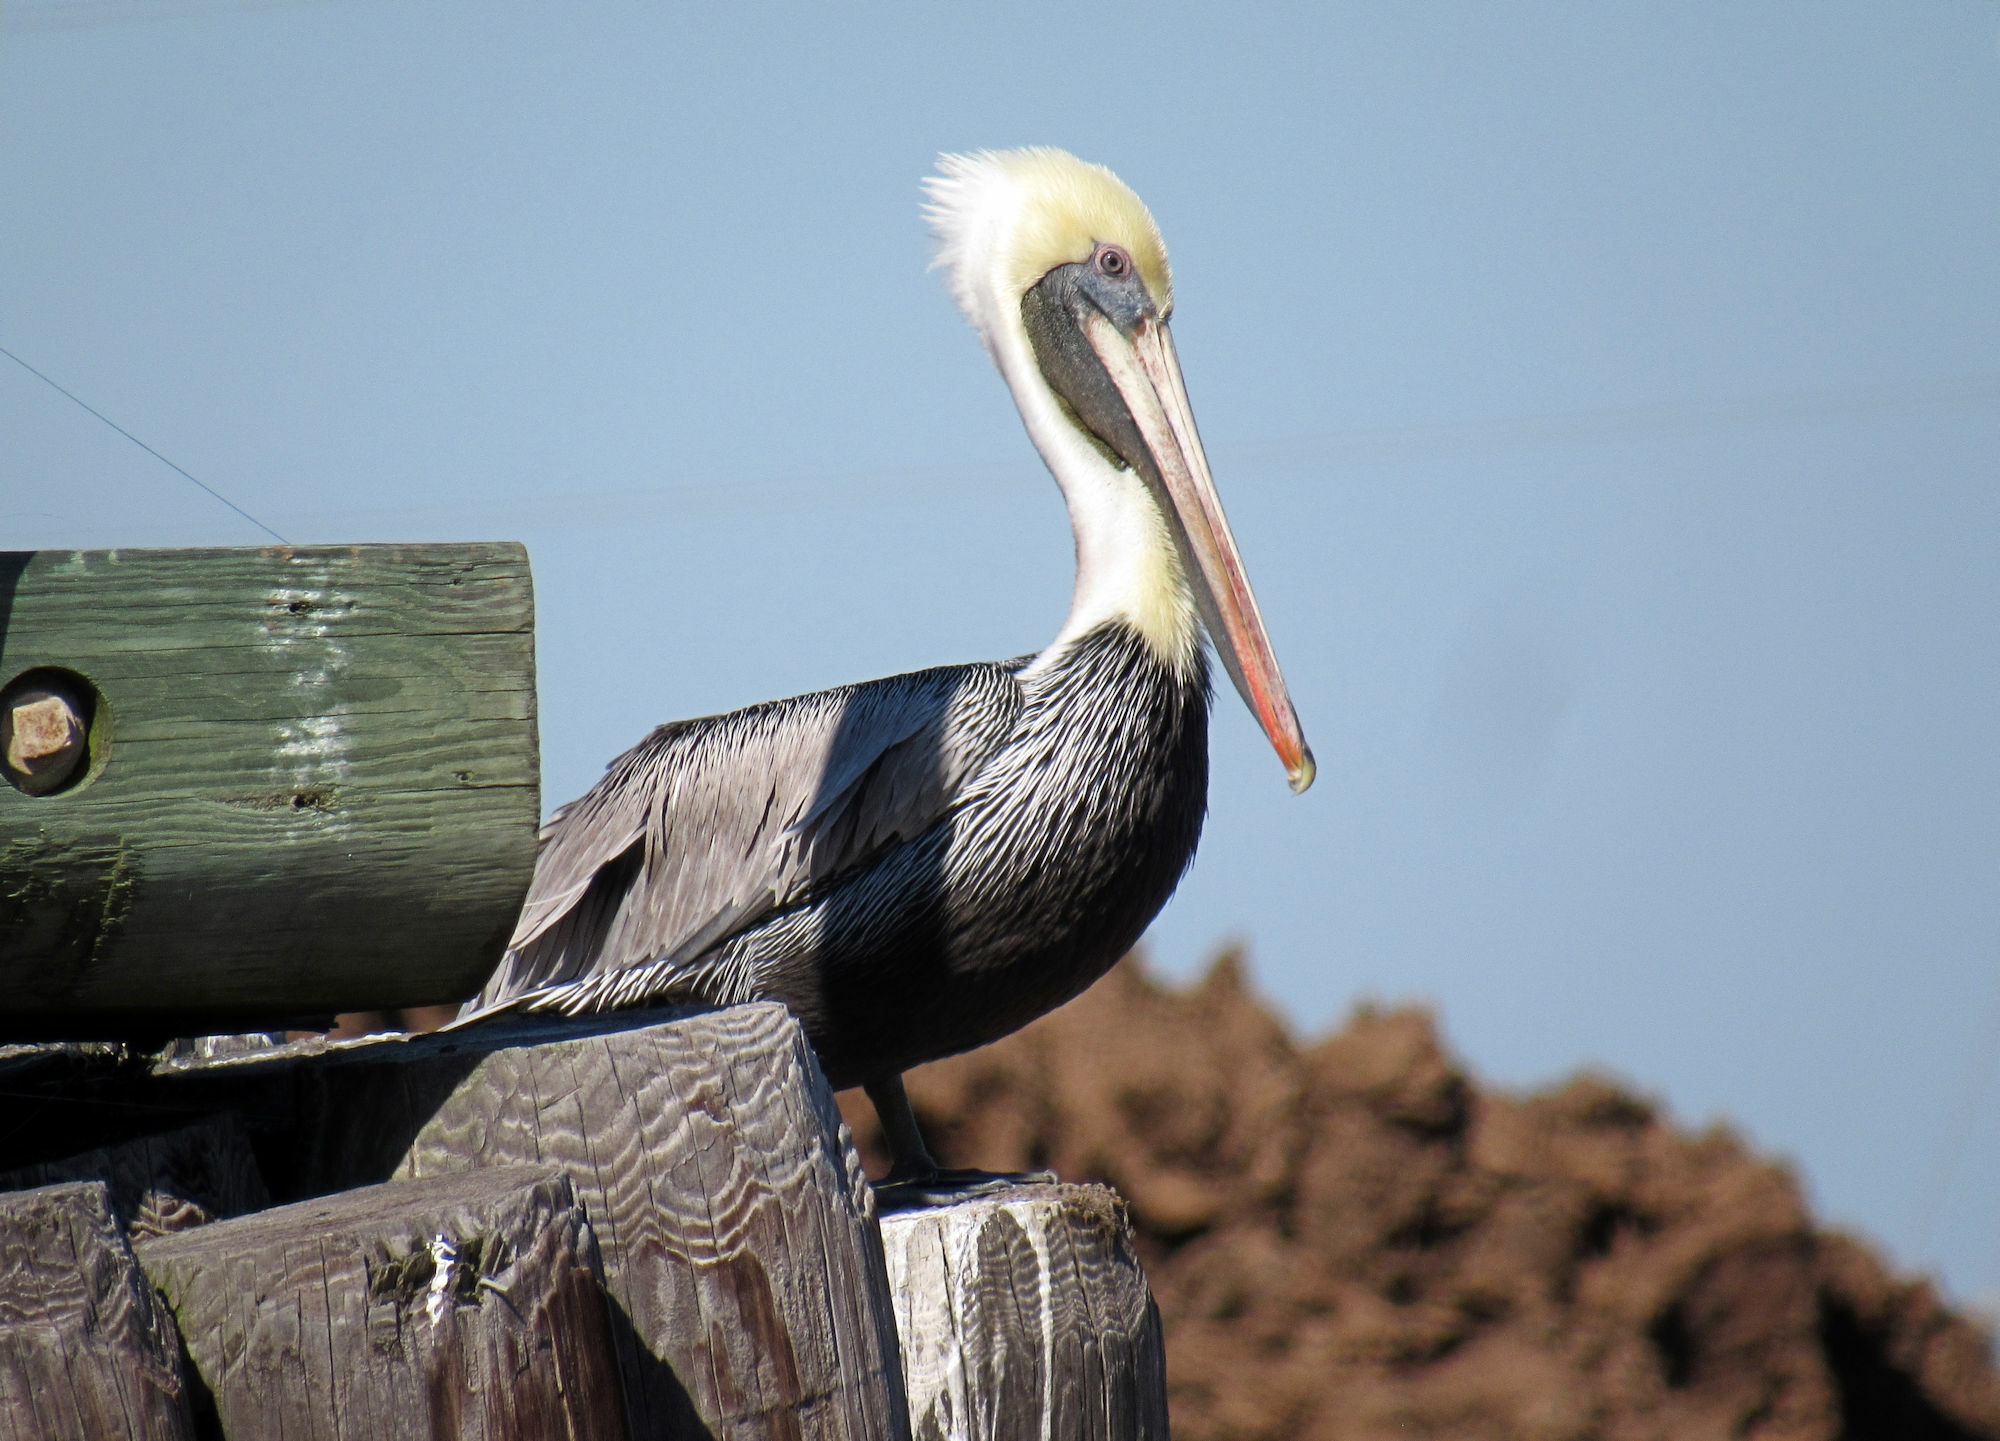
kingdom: Animalia
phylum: Chordata
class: Aves
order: Pelecaniformes
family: Pelecanidae
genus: Pelecanus
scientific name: Pelecanus occidentalis
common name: Brown pelican
